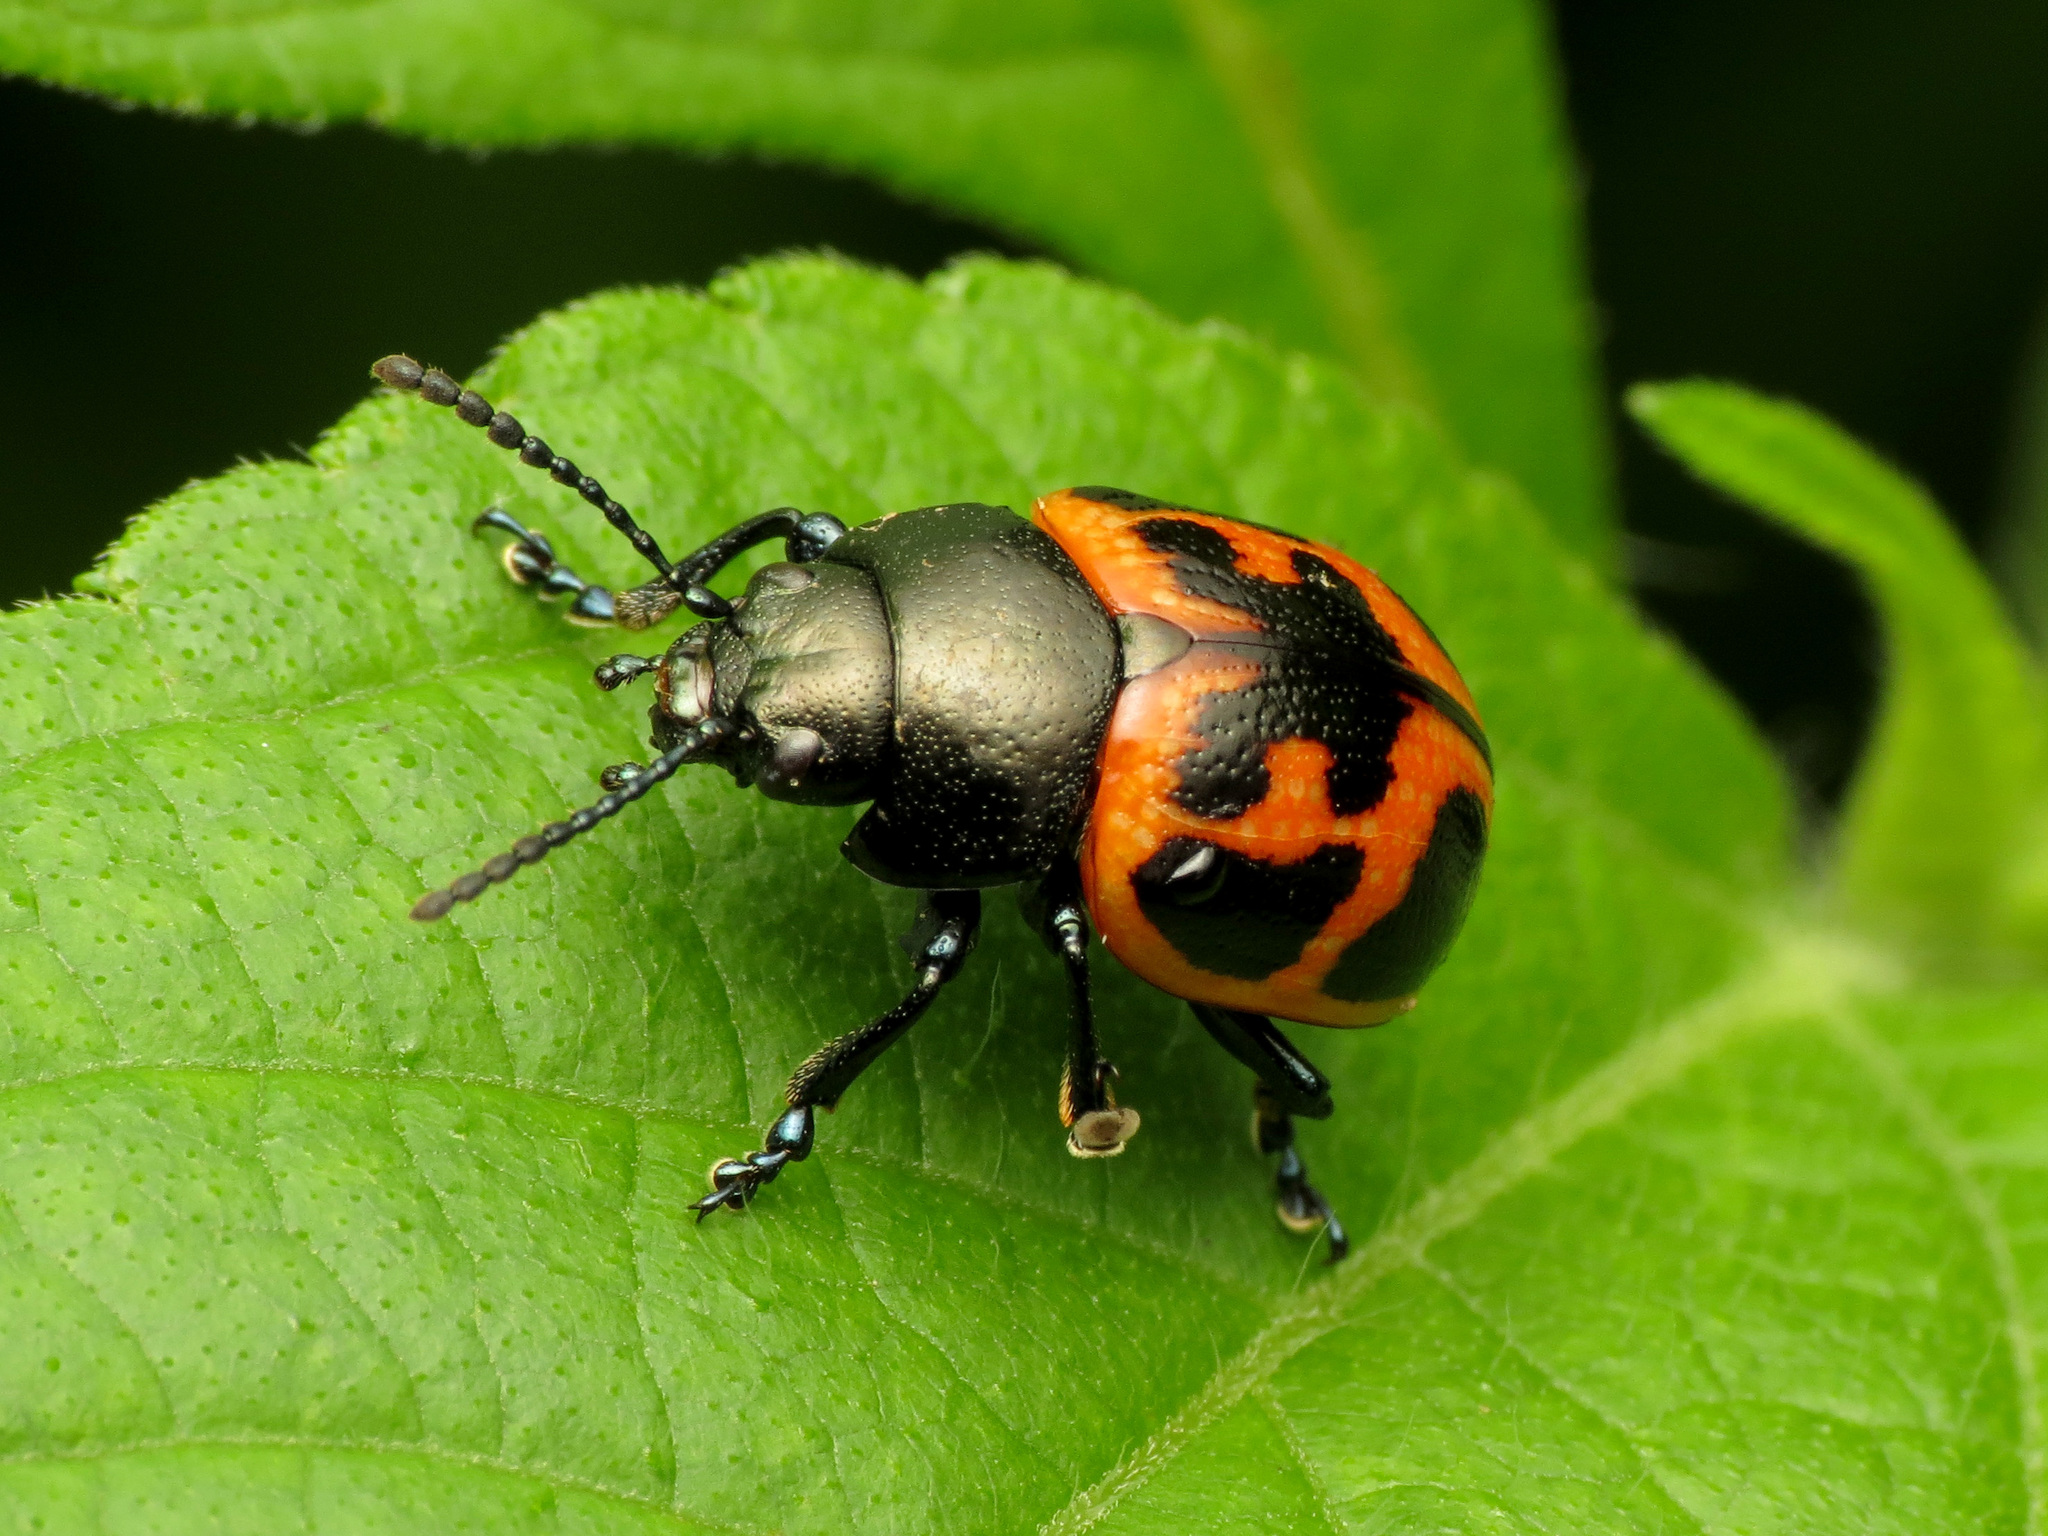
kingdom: Animalia
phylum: Arthropoda
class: Insecta
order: Coleoptera
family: Chrysomelidae
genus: Labidomera
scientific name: Labidomera clivicollis
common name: Swamp milkweed leaf beetle
